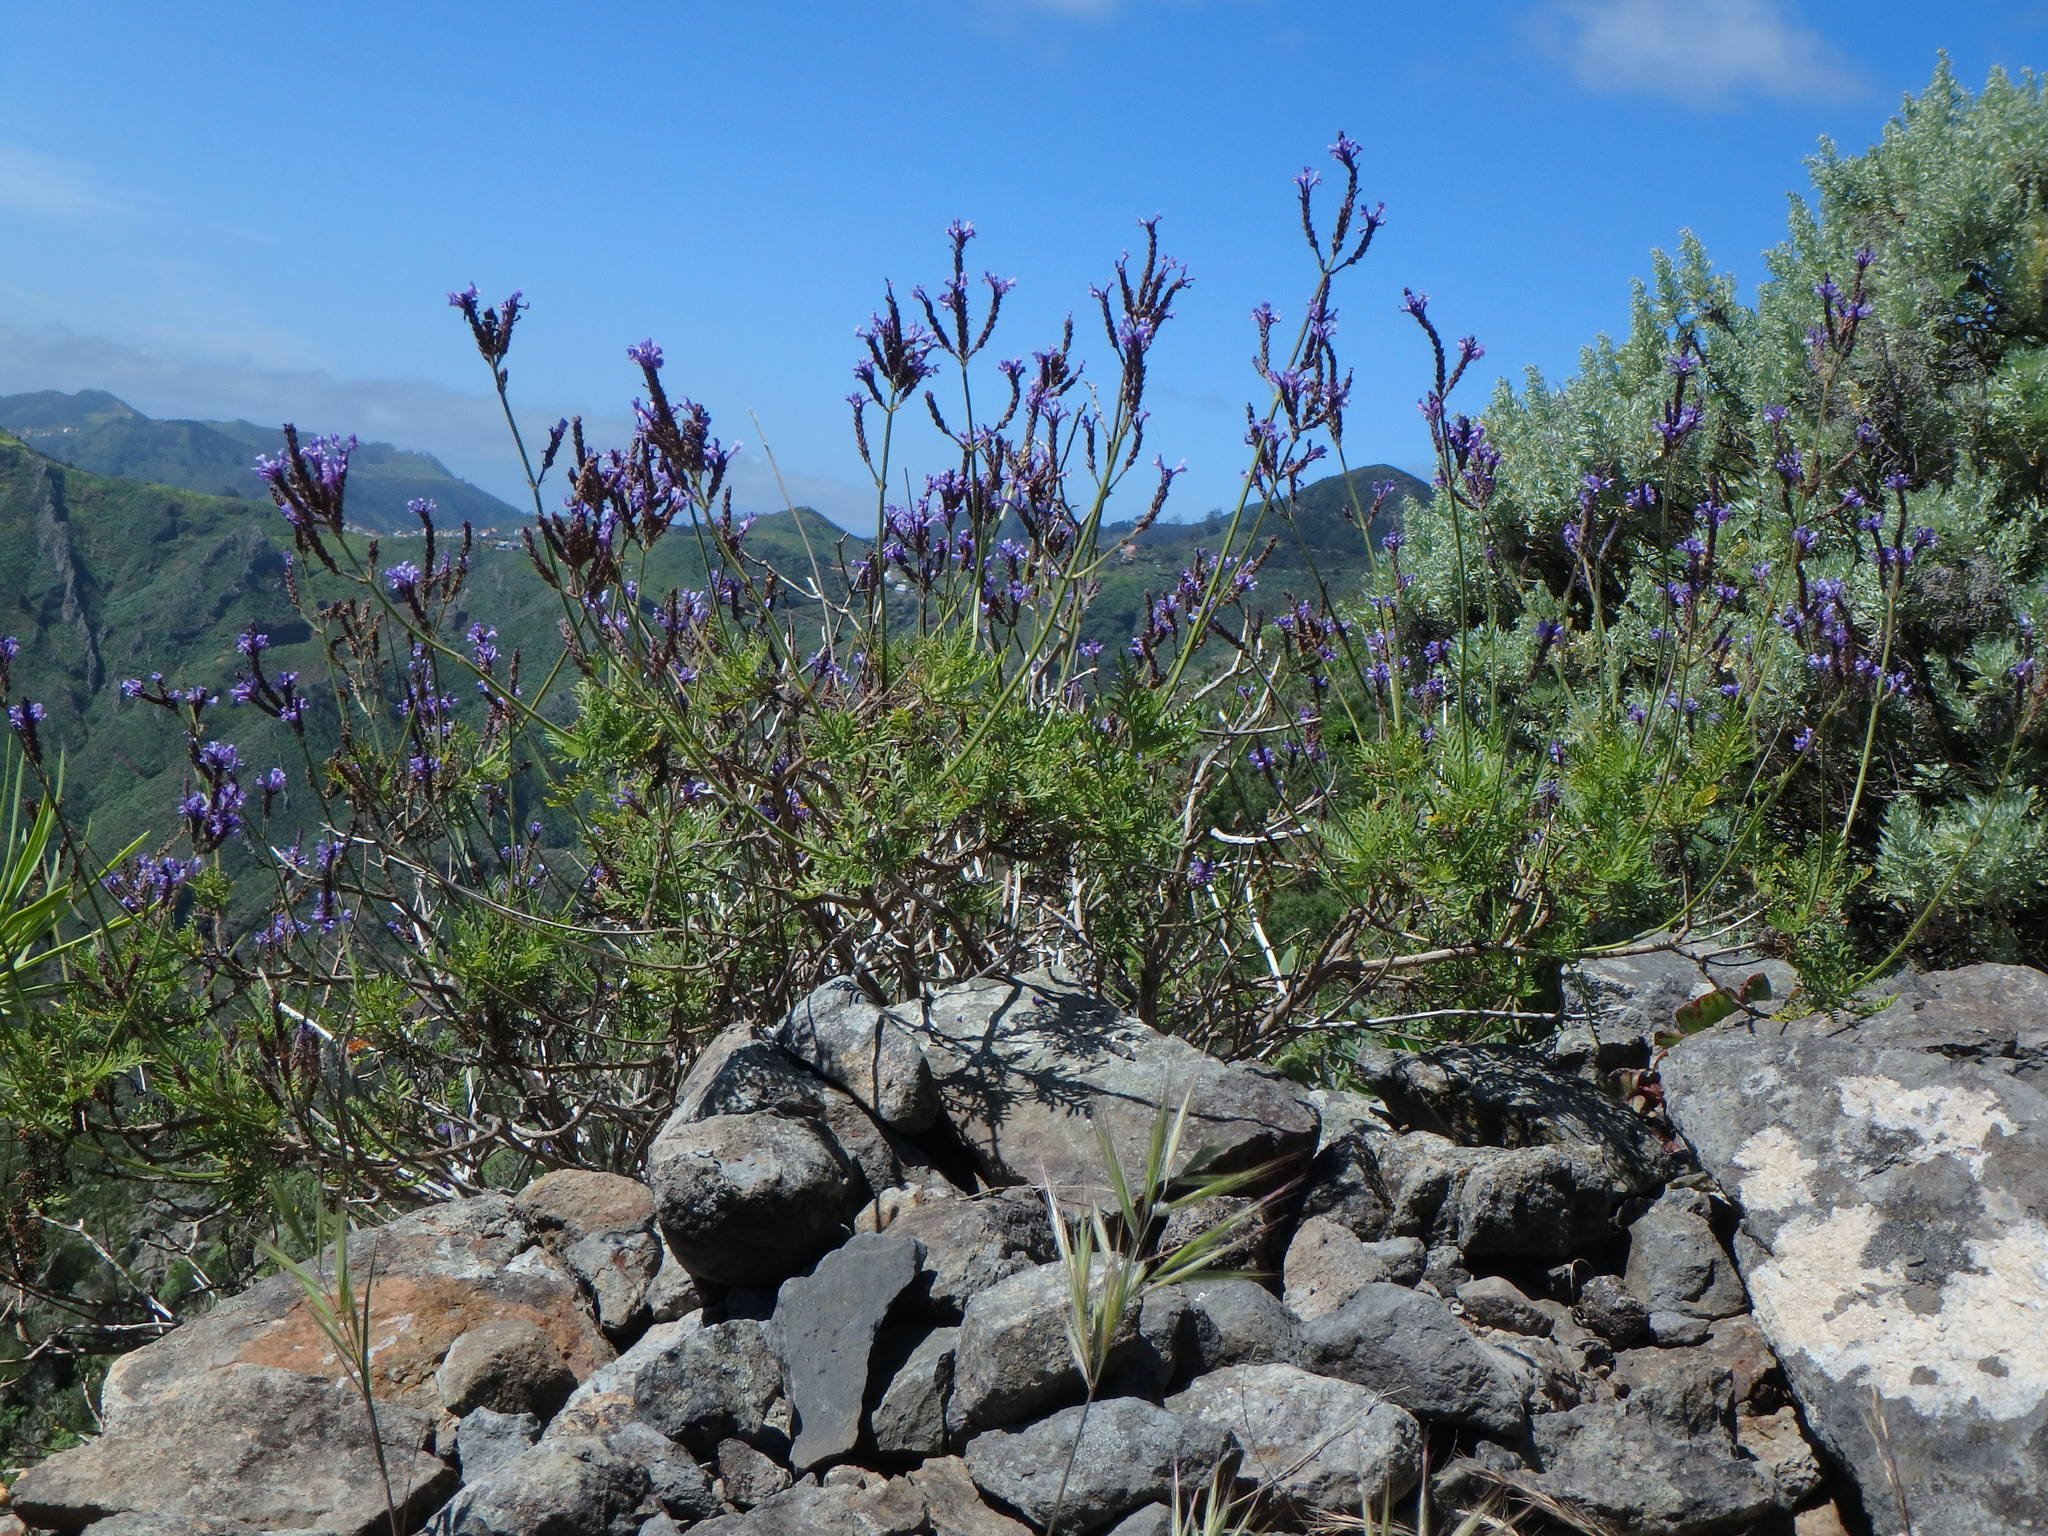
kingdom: Plantae
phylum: Tracheophyta
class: Magnoliopsida
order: Lamiales
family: Lamiaceae
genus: Lavandula
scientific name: Lavandula canariensis
